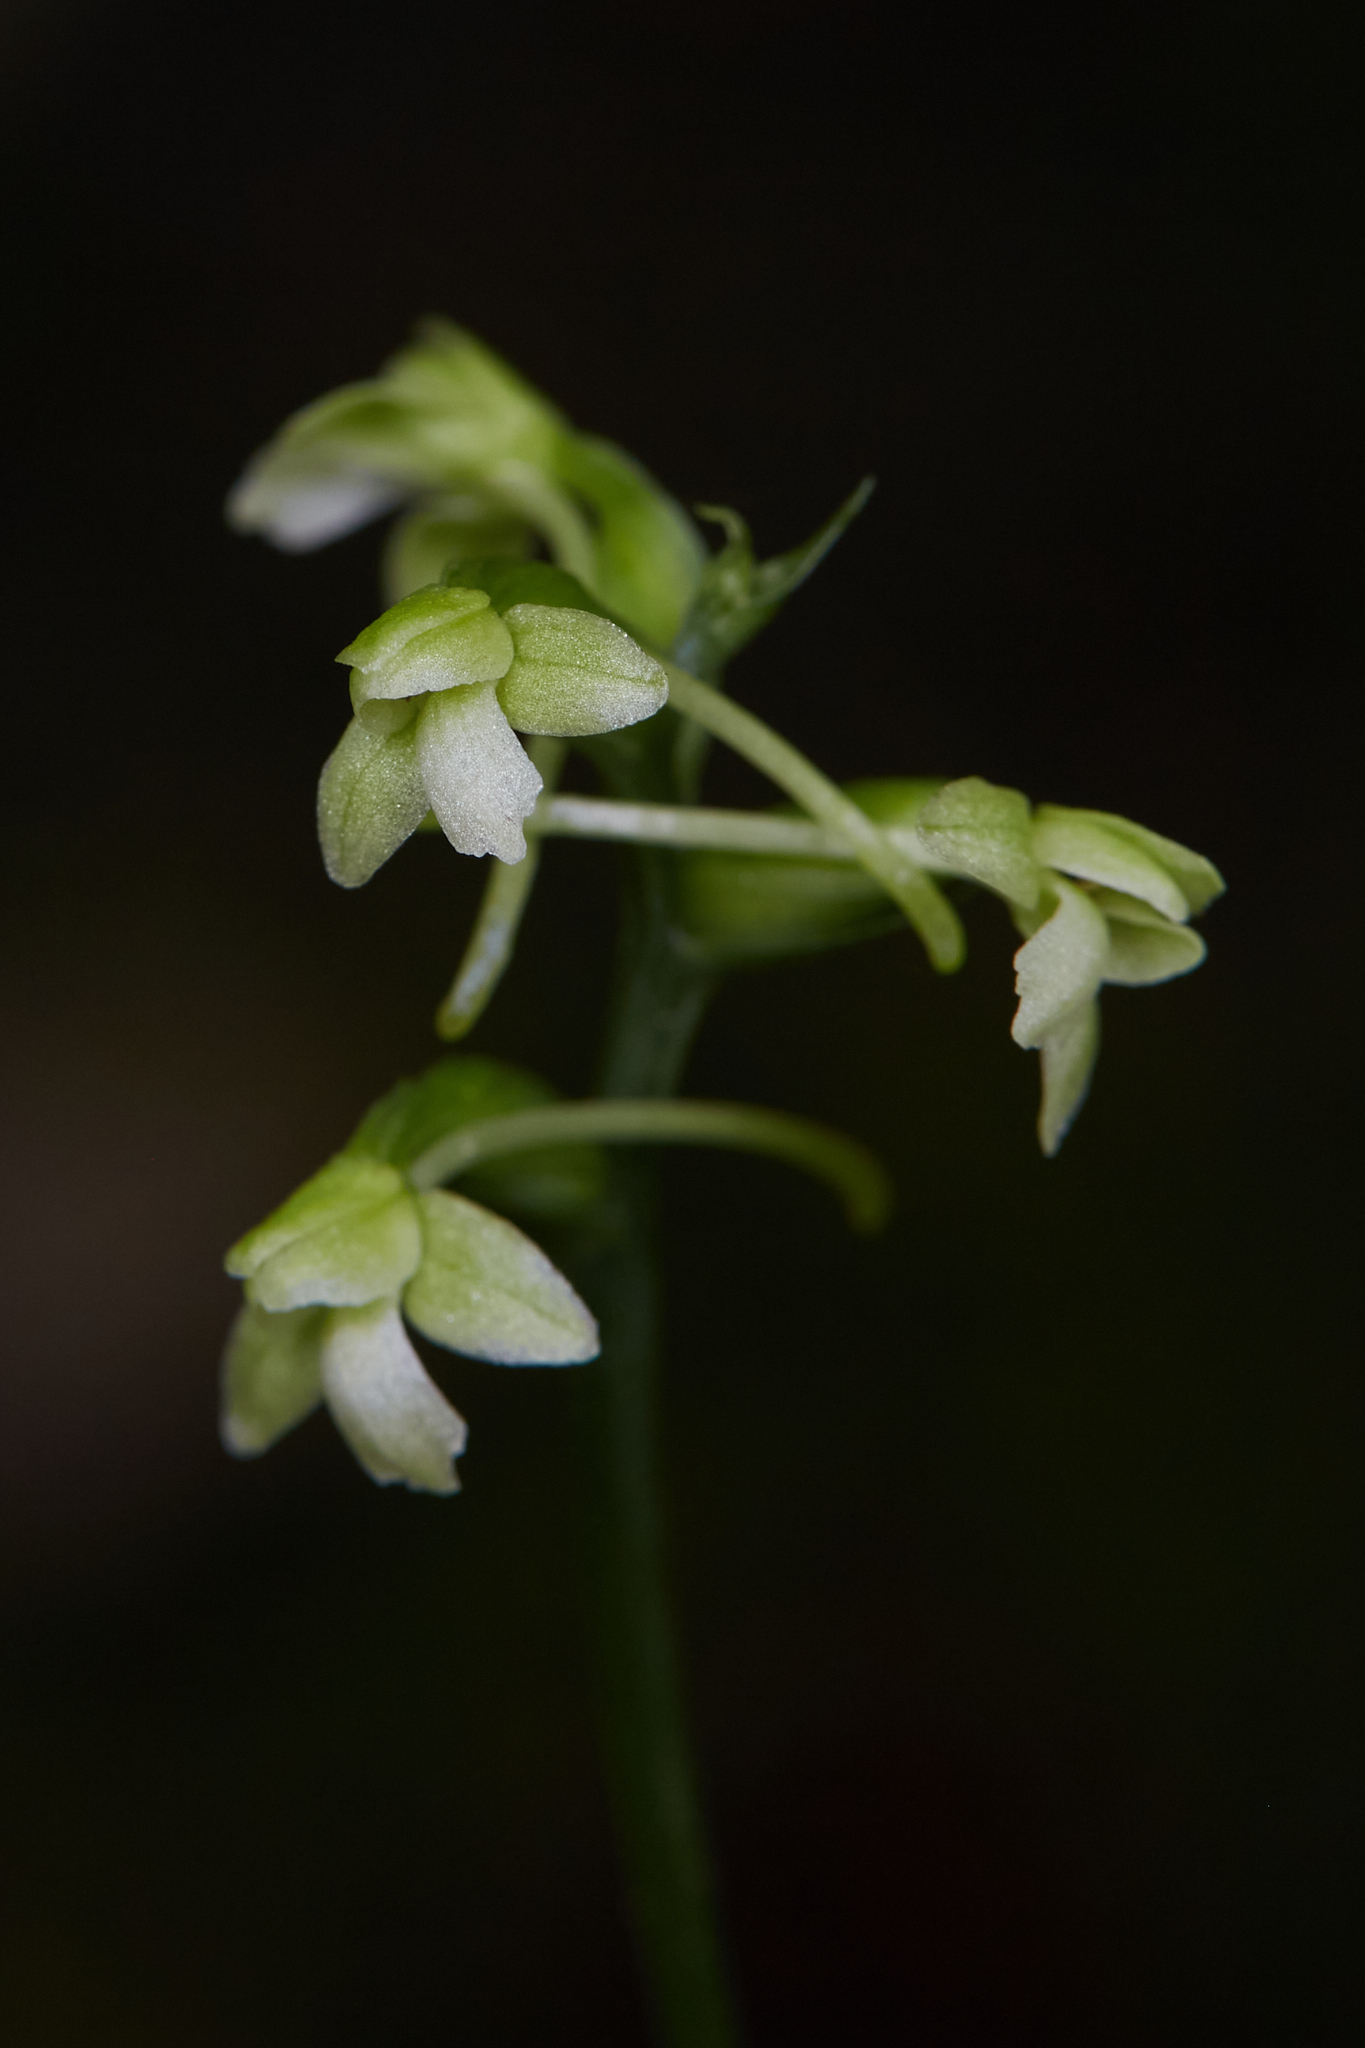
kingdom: Plantae
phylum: Tracheophyta
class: Liliopsida
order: Asparagales
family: Orchidaceae
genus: Platanthera
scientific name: Platanthera clavellata
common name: Club-spur orchid
